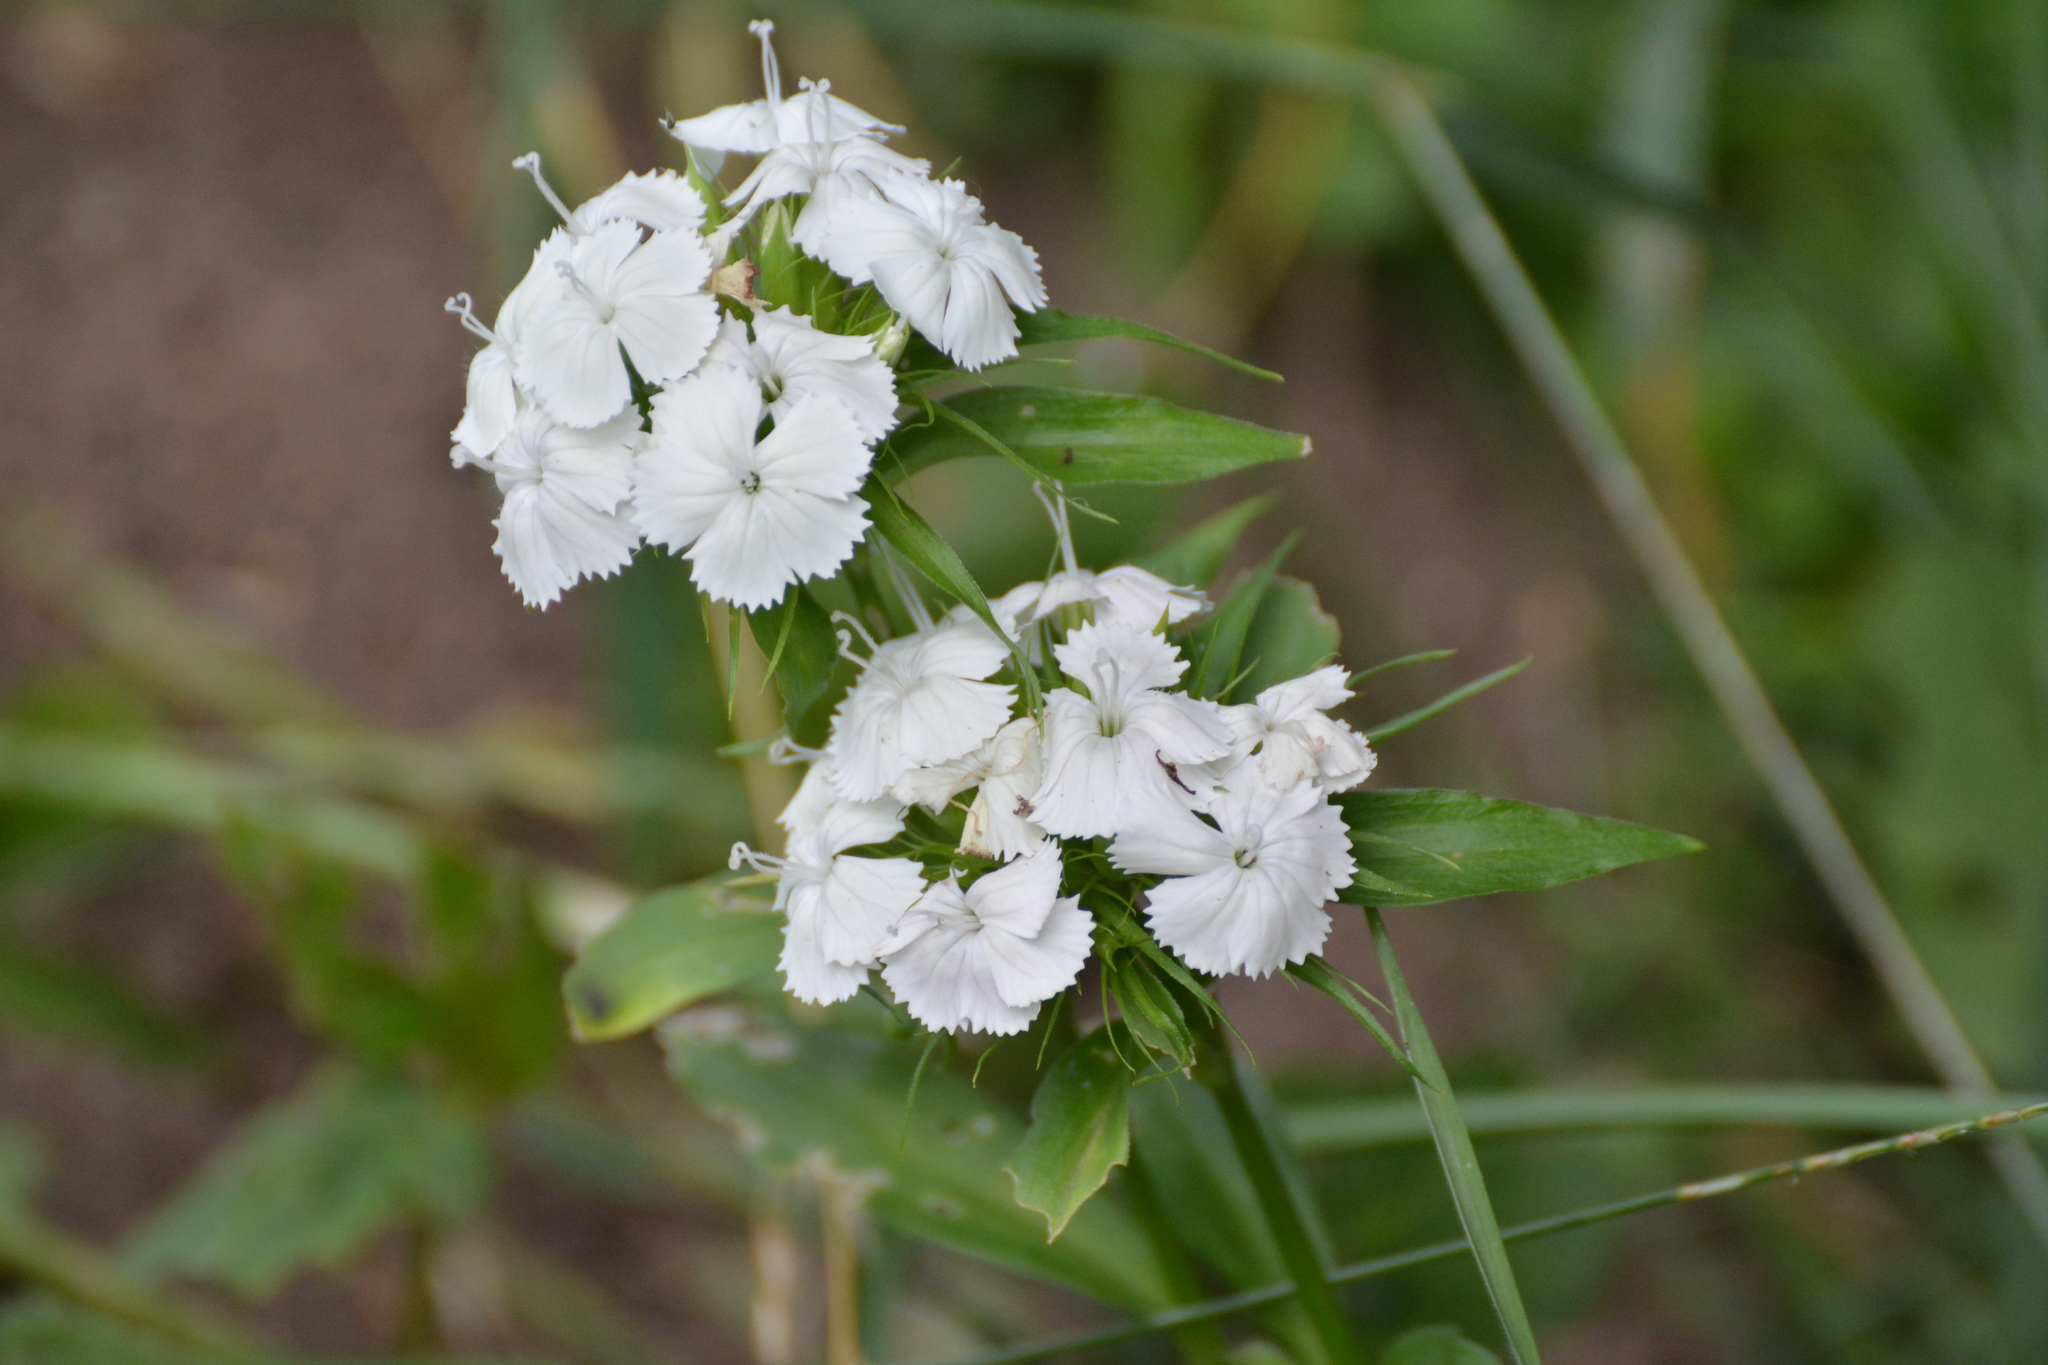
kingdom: Plantae
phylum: Tracheophyta
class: Magnoliopsida
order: Caryophyllales
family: Caryophyllaceae
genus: Dianthus
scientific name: Dianthus barbatus
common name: Sweet-william
